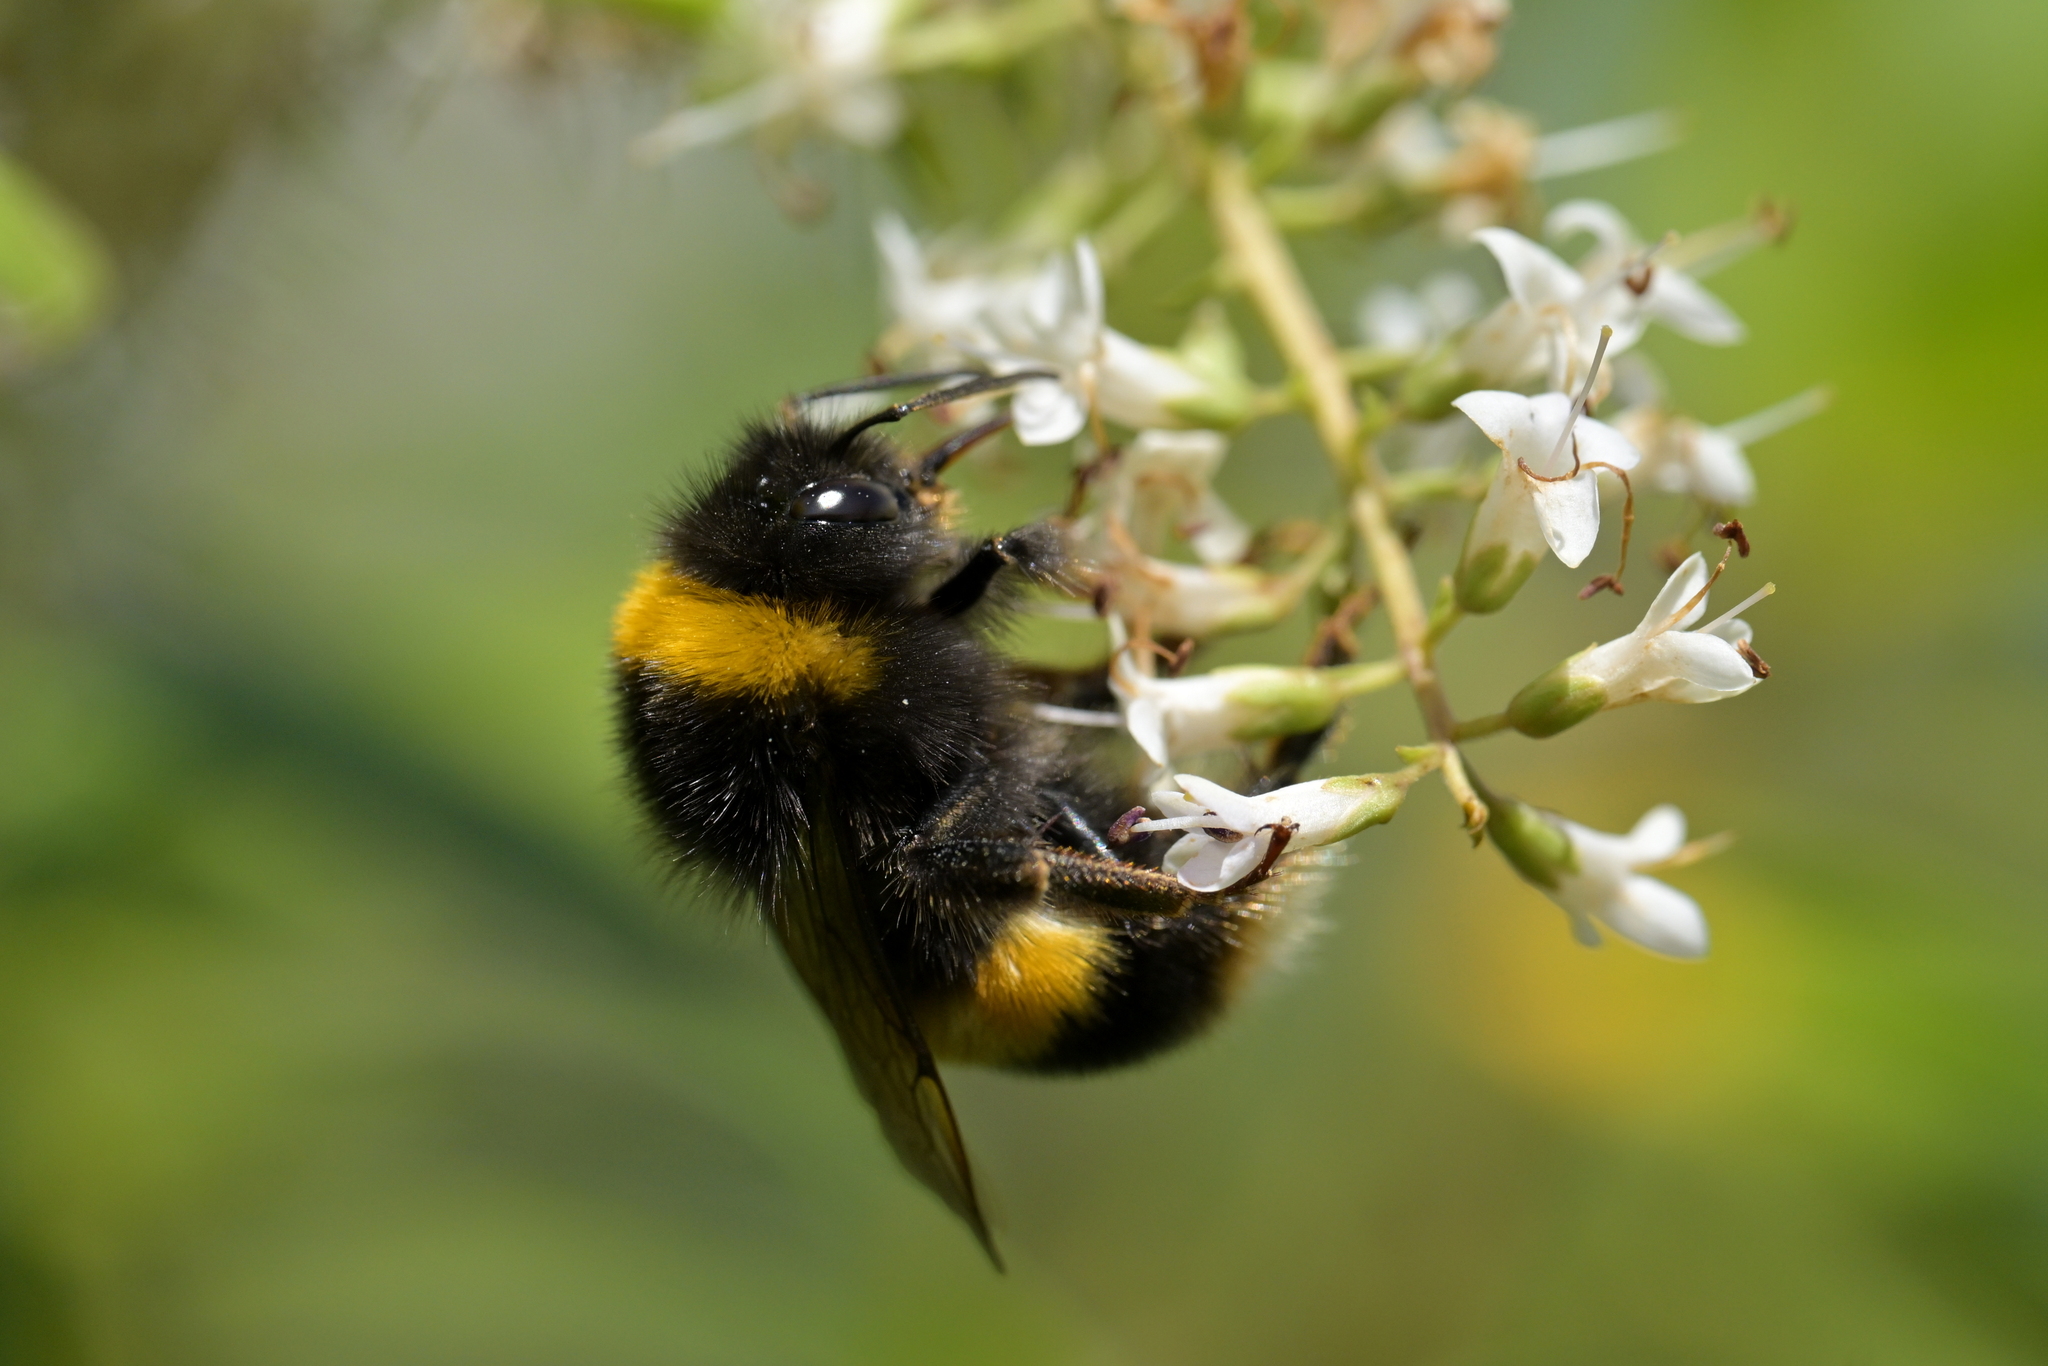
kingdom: Animalia
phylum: Arthropoda
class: Insecta
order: Hymenoptera
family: Apidae
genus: Bombus
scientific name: Bombus terrestris
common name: Buff-tailed bumblebee
